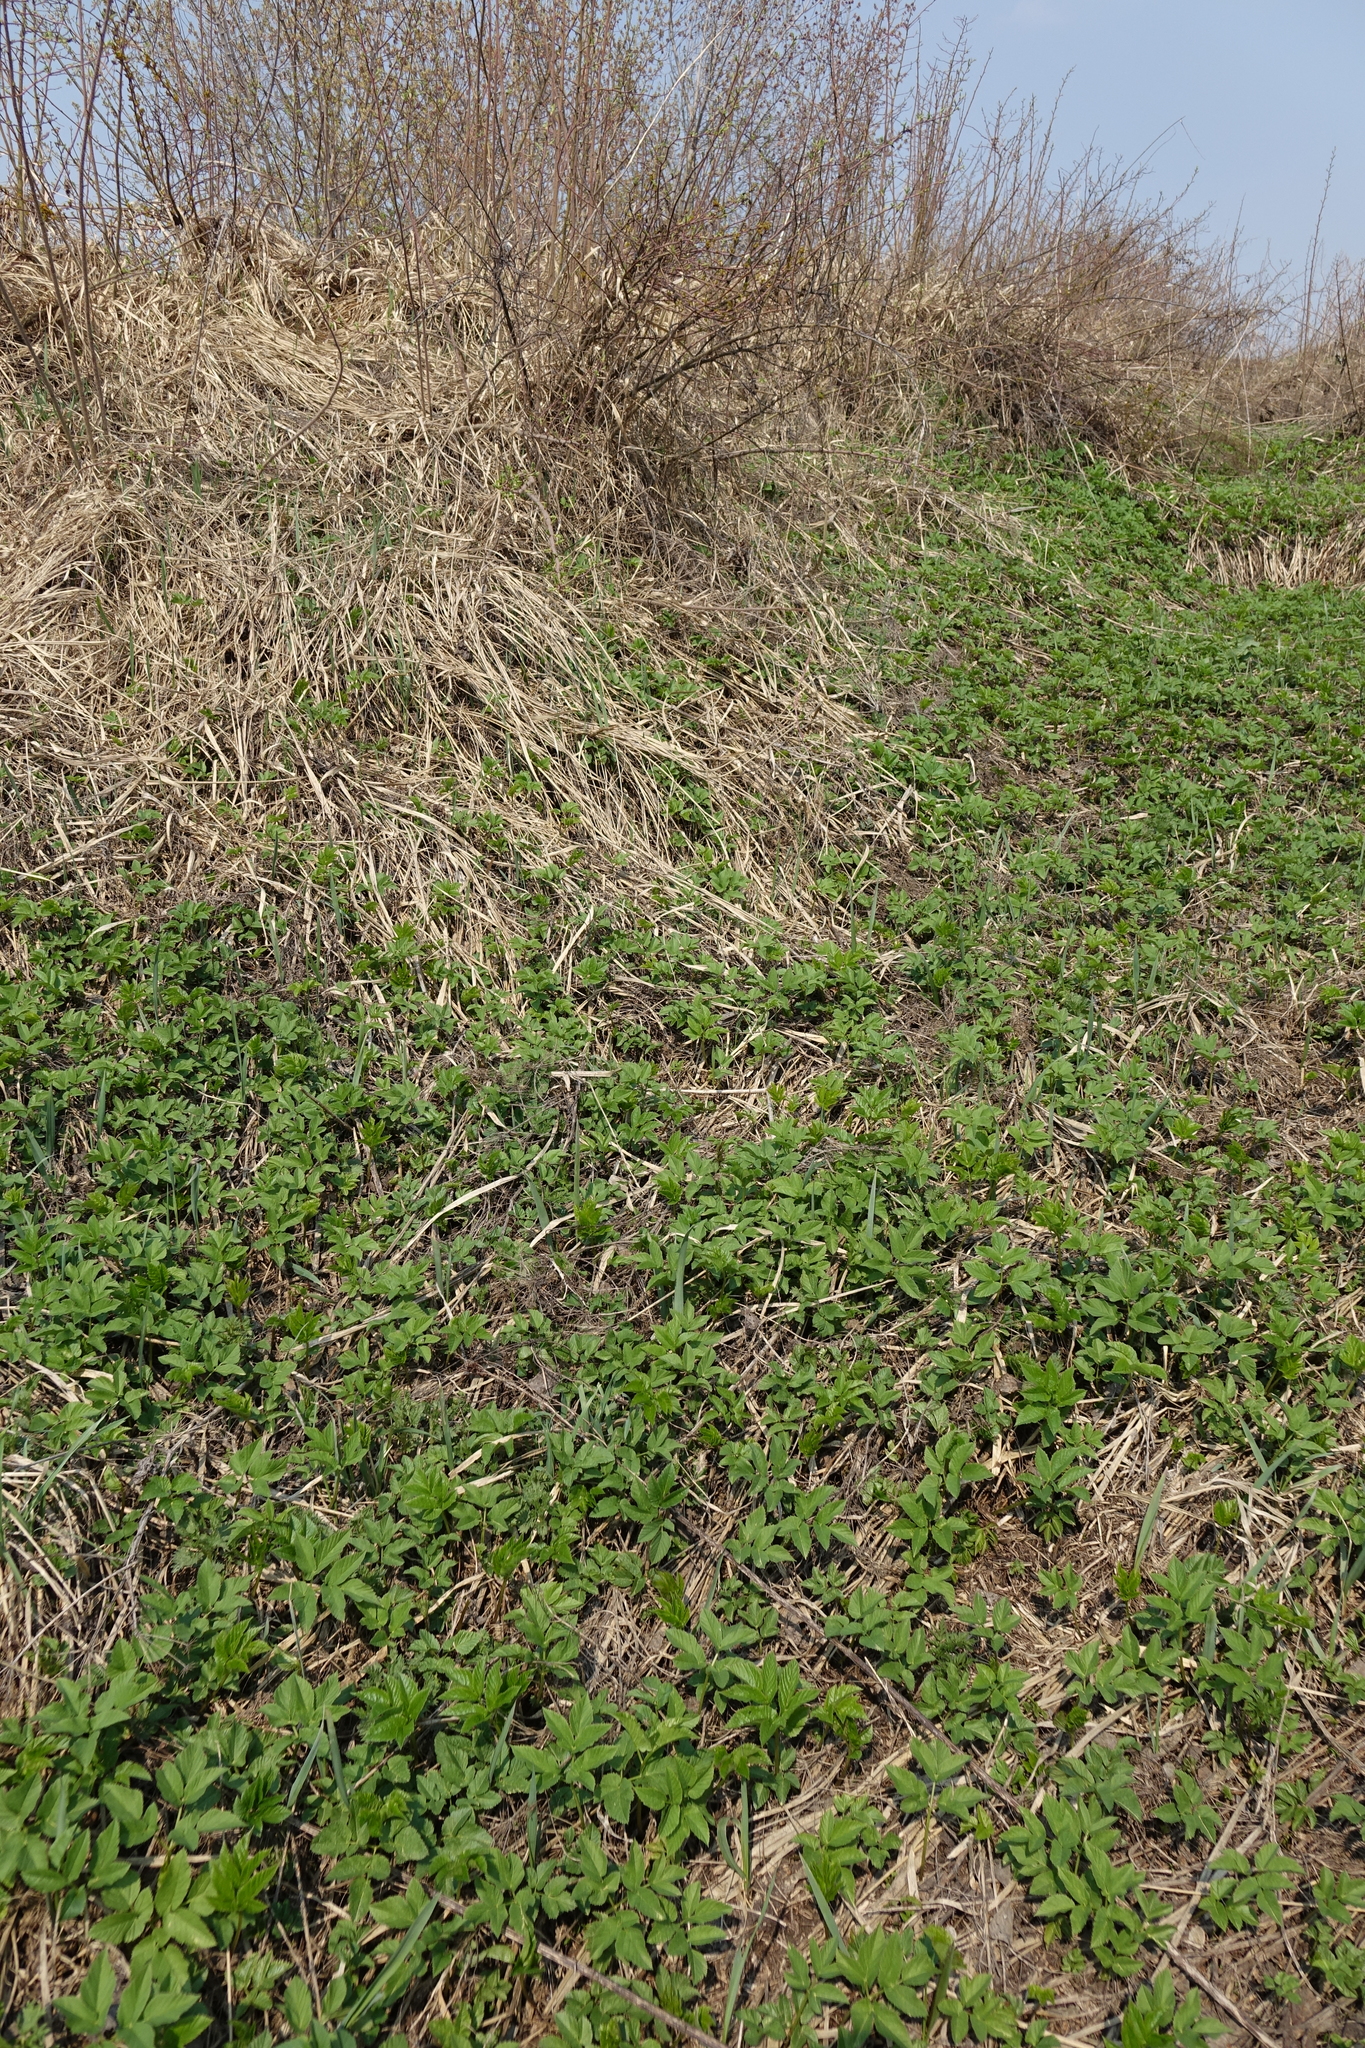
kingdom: Plantae
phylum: Tracheophyta
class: Magnoliopsida
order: Apiales
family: Apiaceae
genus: Aegopodium
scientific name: Aegopodium podagraria
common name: Ground-elder
